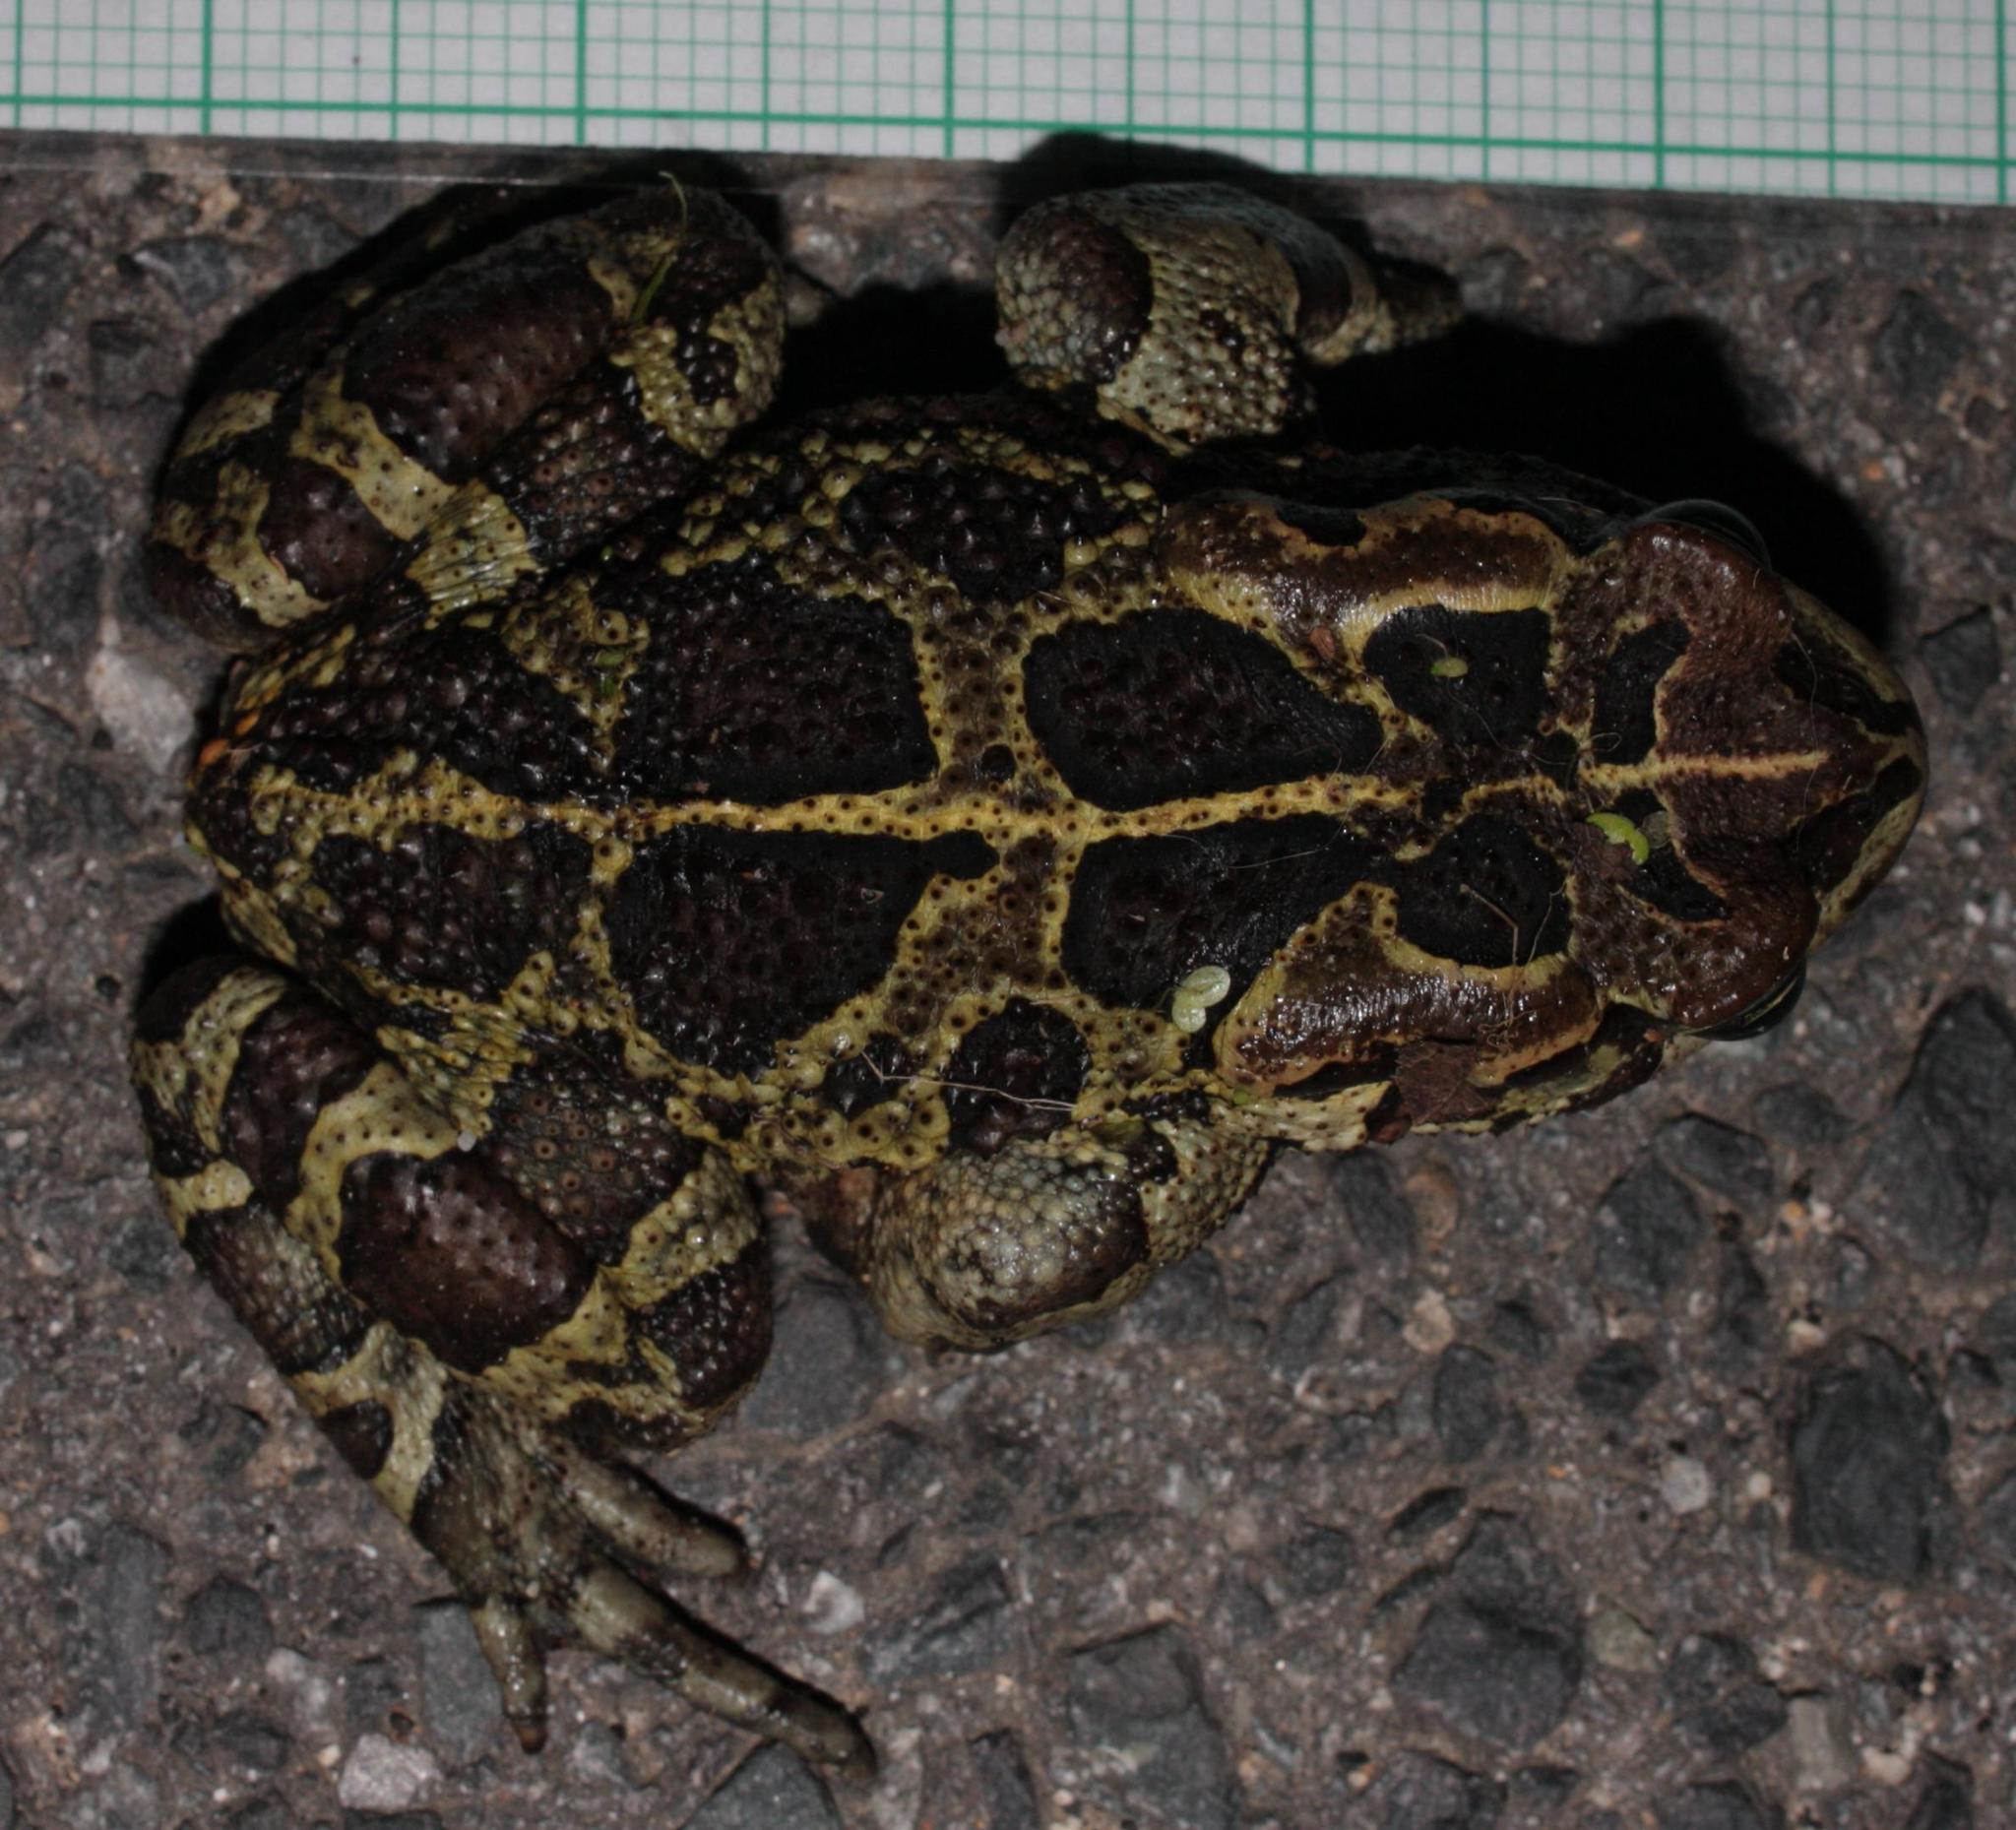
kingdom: Animalia
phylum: Chordata
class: Amphibia
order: Anura
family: Bufonidae
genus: Sclerophrys
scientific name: Sclerophrys pantherina
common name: Panther toad
